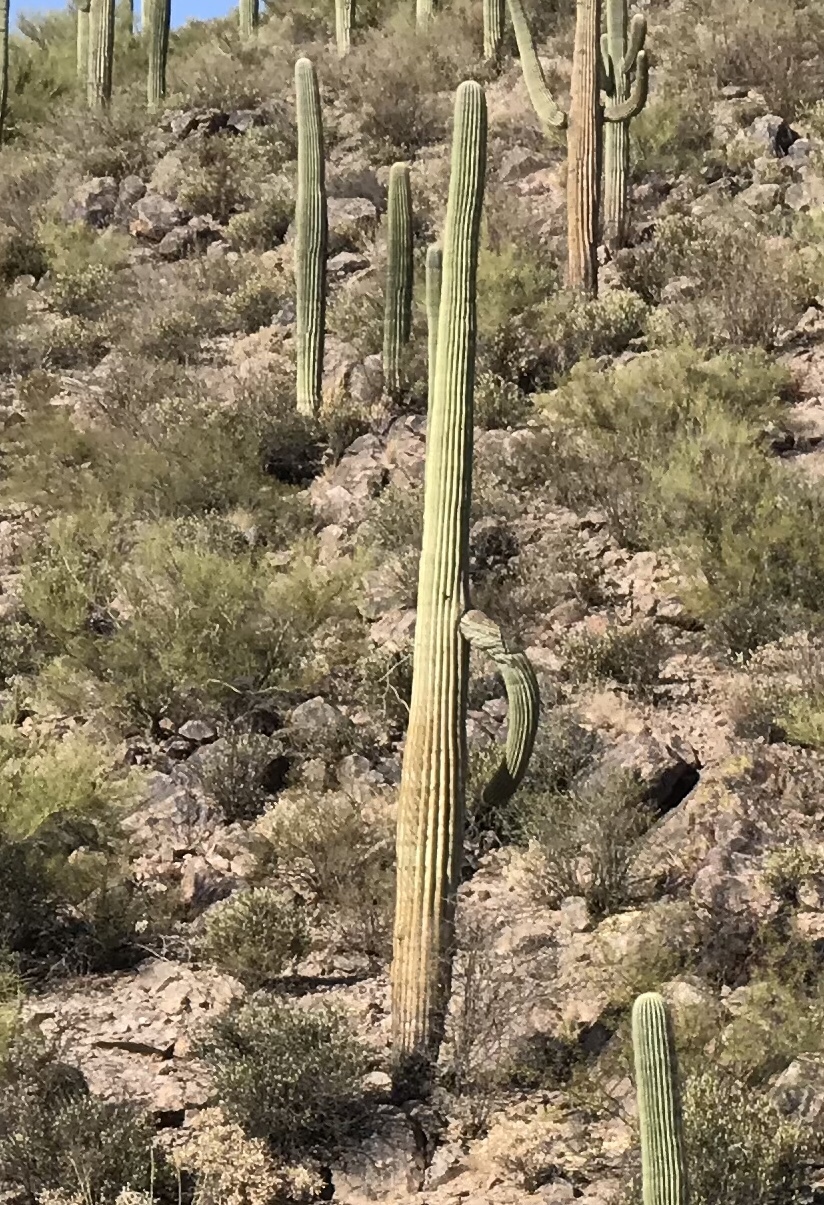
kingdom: Plantae
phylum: Tracheophyta
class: Magnoliopsida
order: Caryophyllales
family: Cactaceae
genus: Carnegiea
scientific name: Carnegiea gigantea
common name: Saguaro
